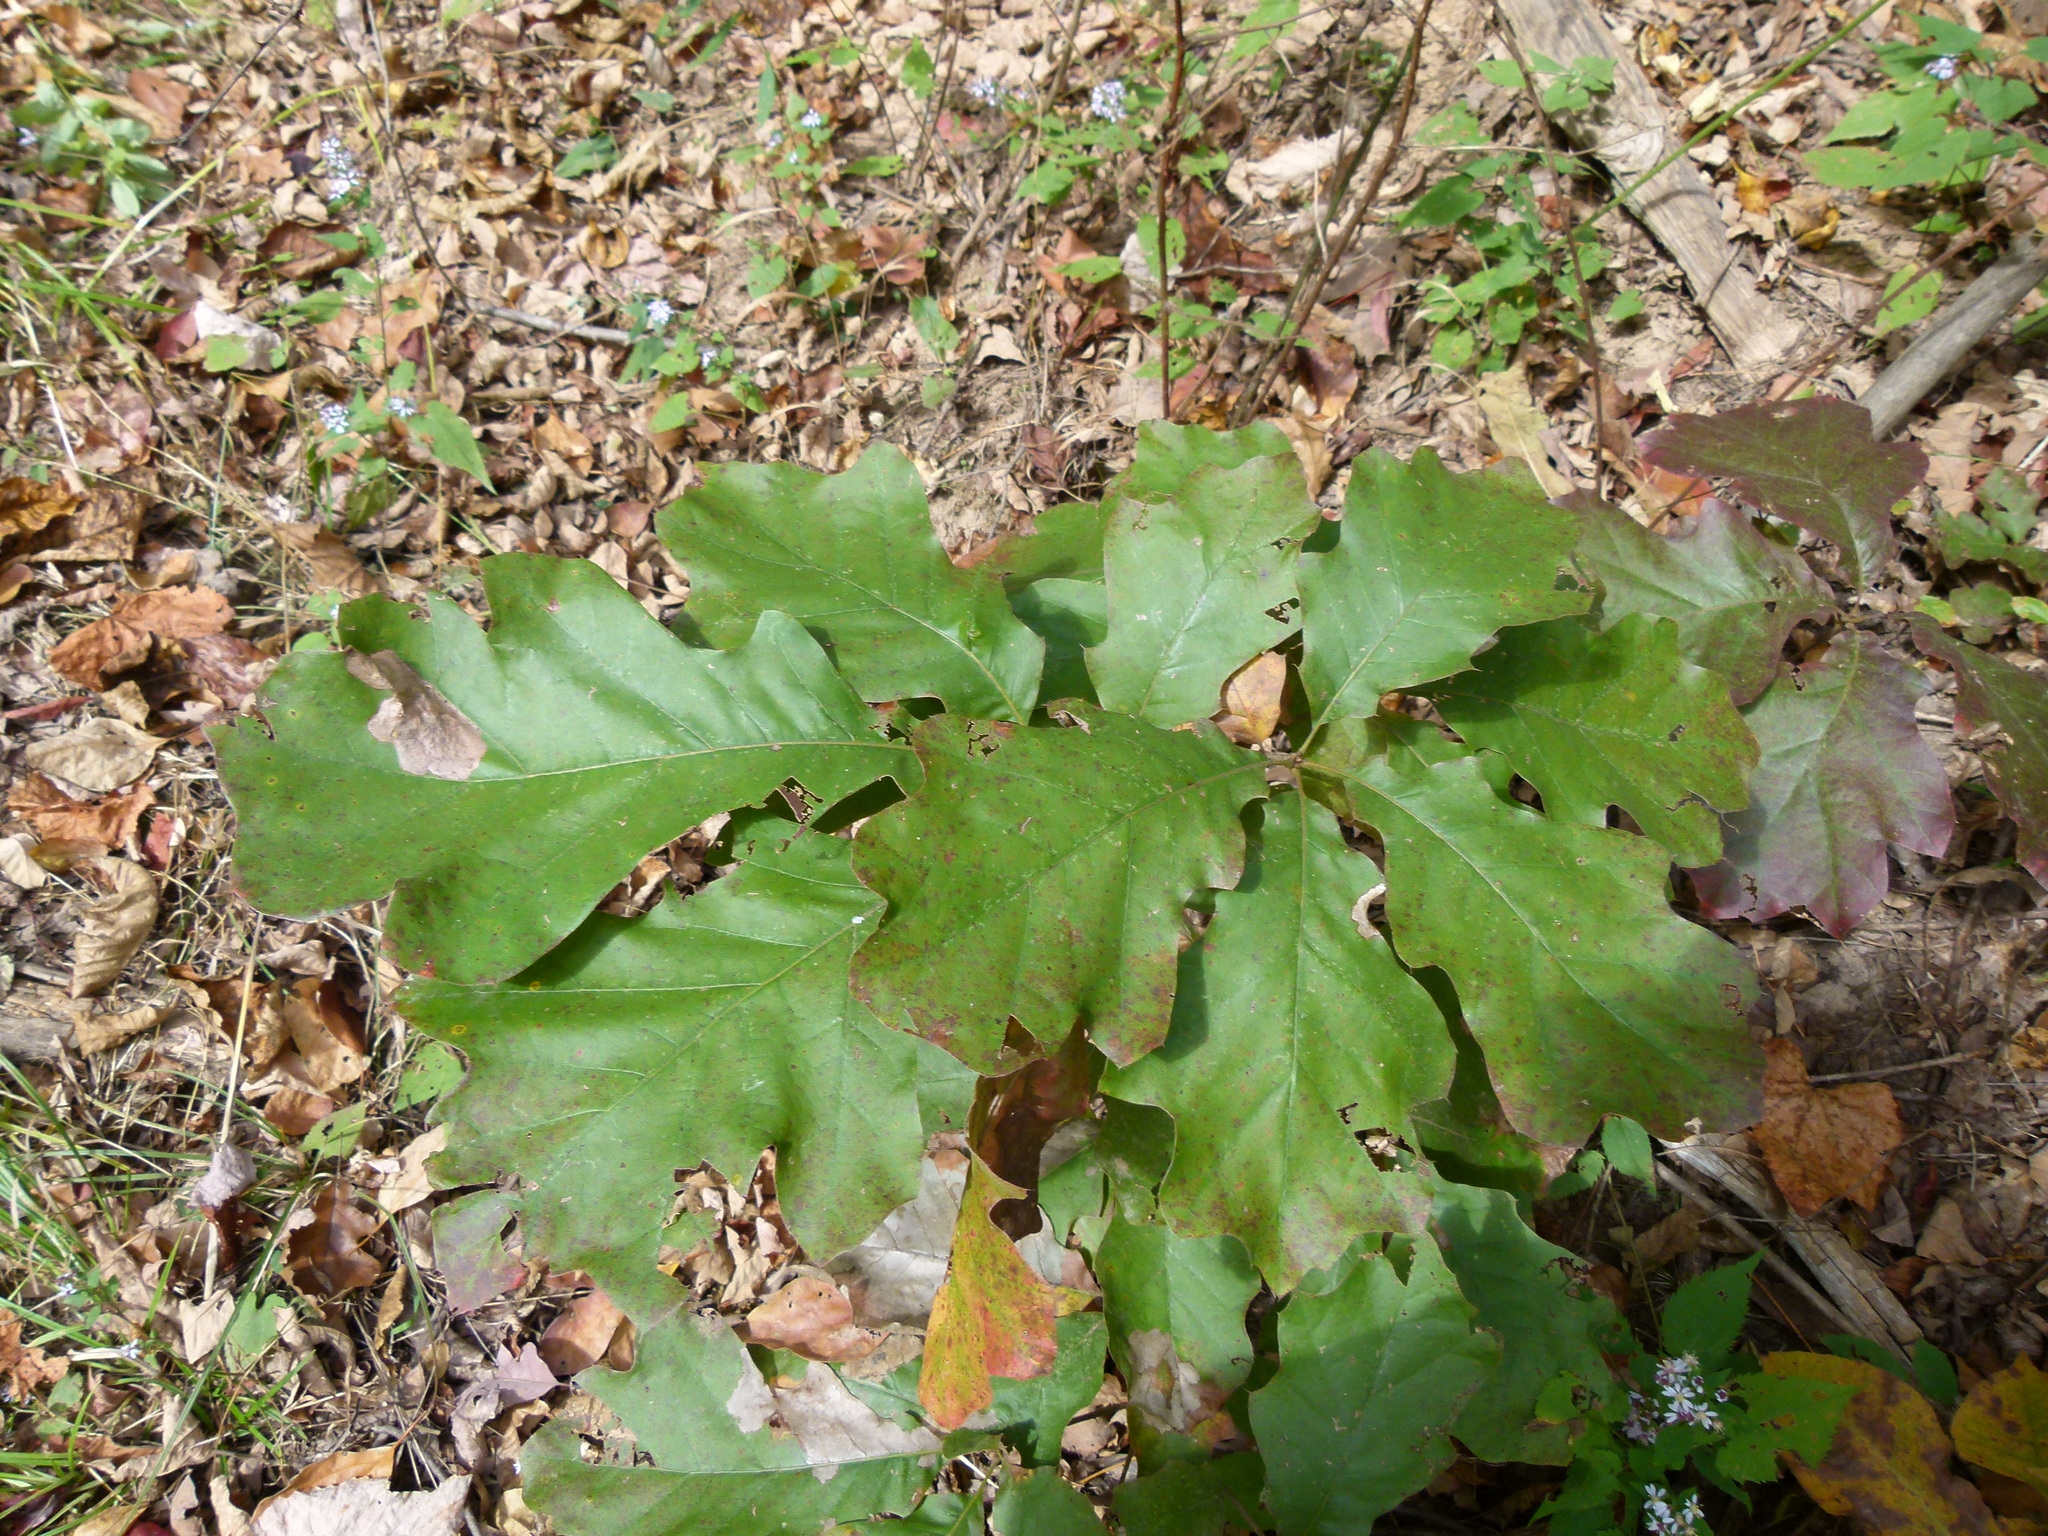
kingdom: Plantae
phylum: Tracheophyta
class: Magnoliopsida
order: Fagales
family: Fagaceae
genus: Quercus
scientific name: Quercus velutina
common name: Black oak
